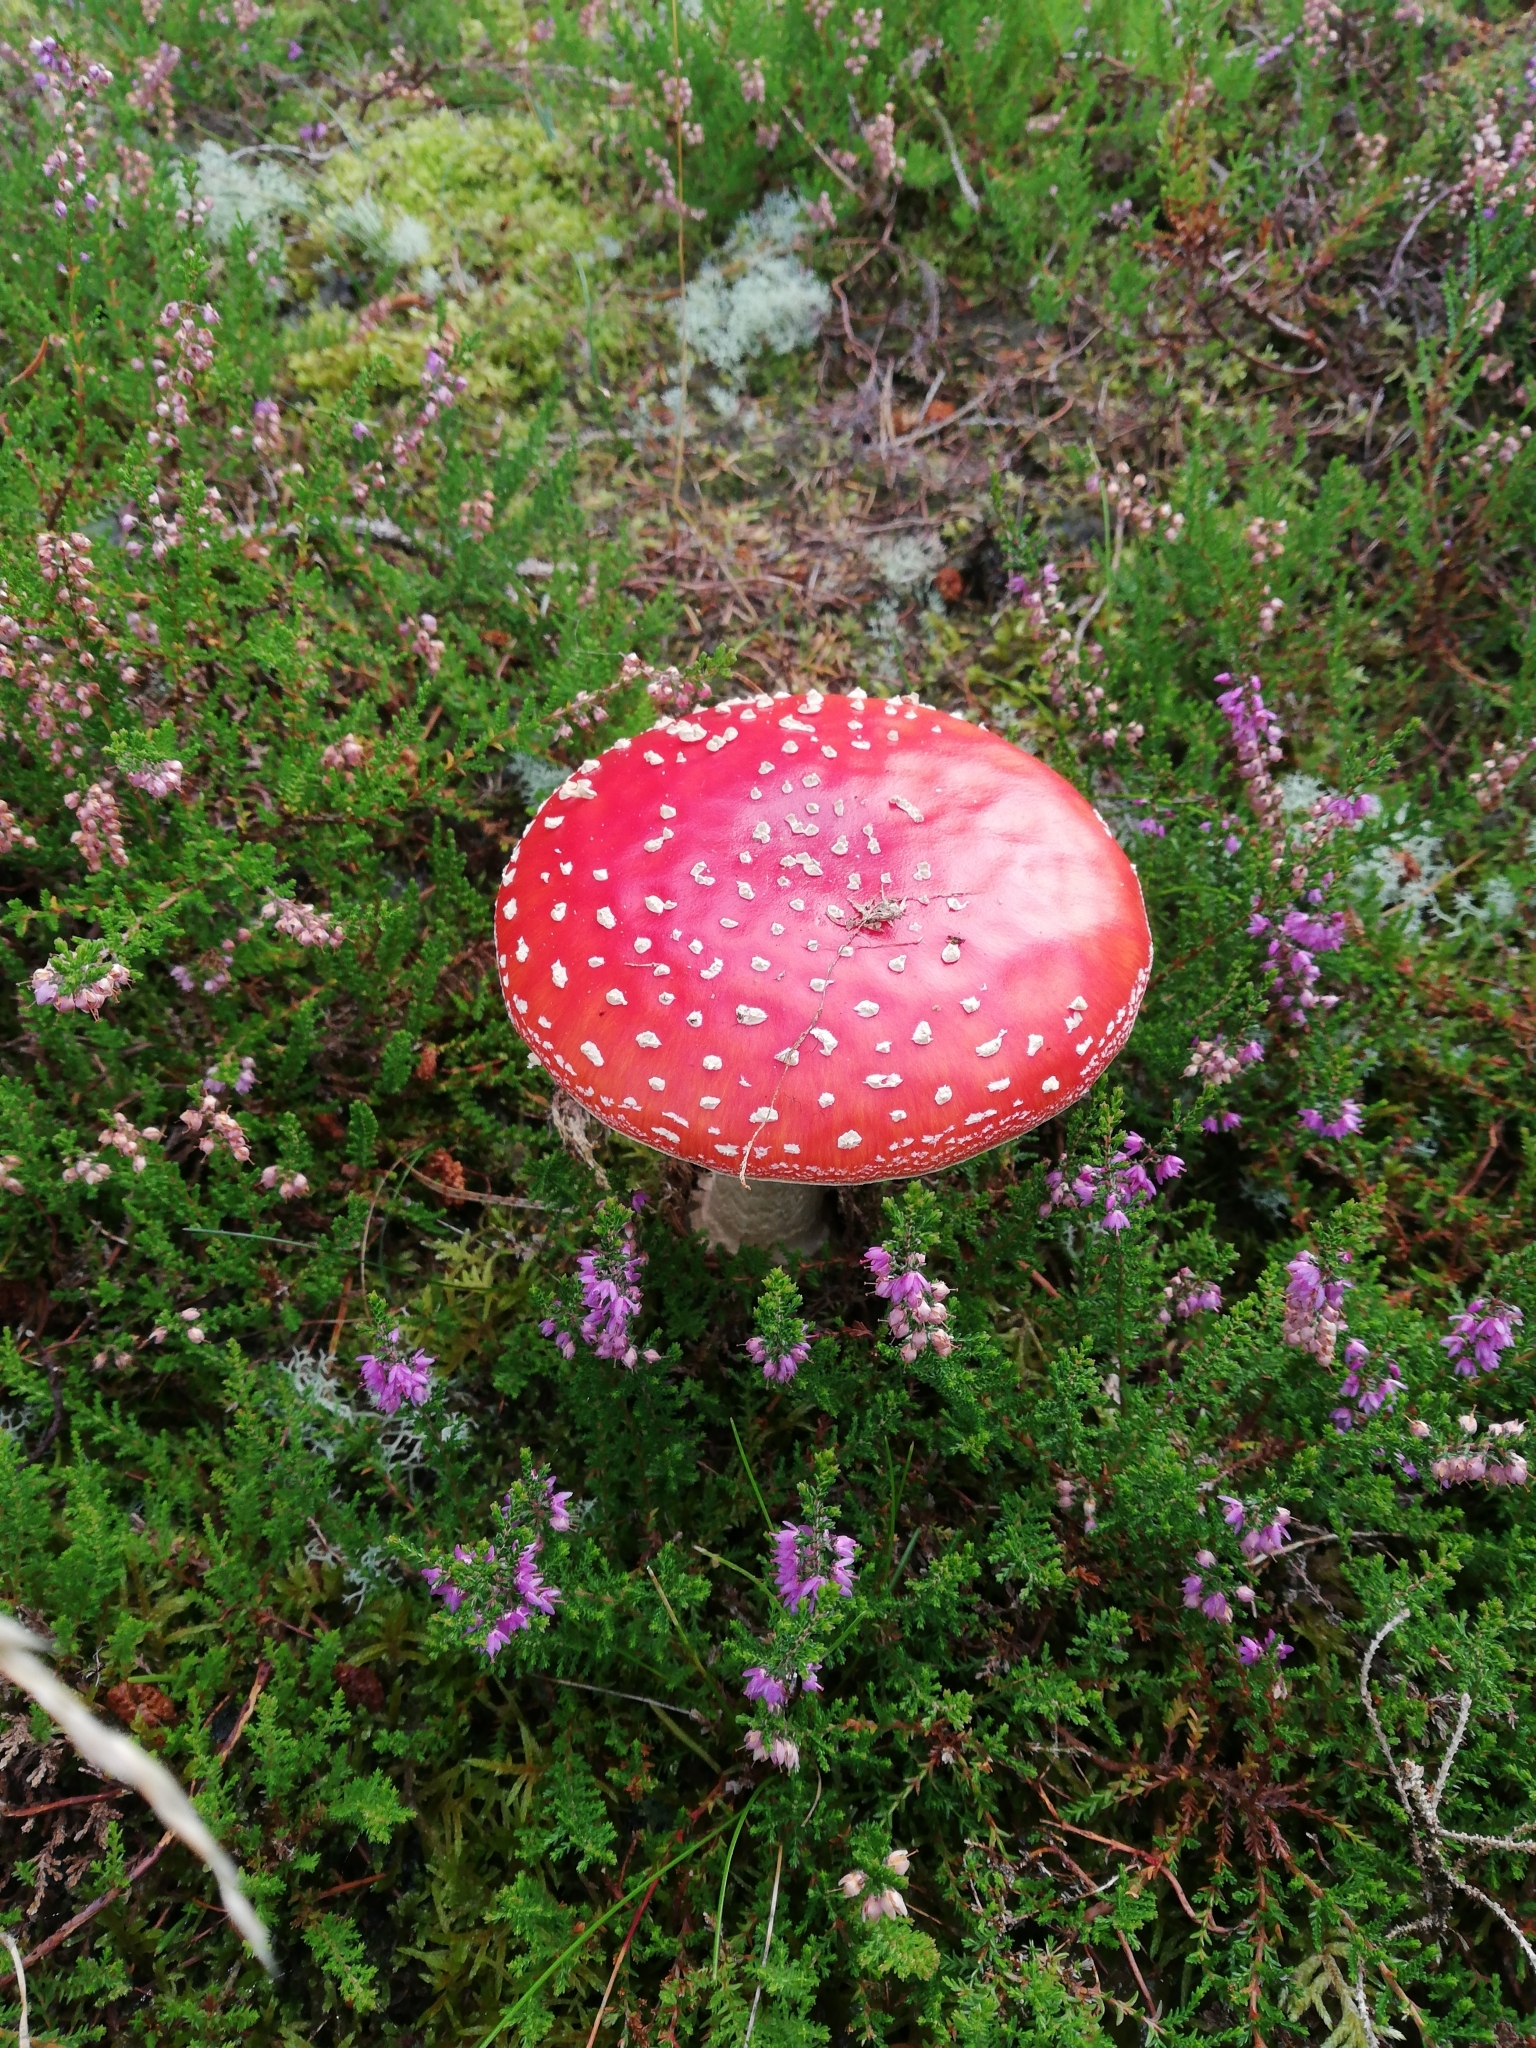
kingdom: Fungi
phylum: Basidiomycota
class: Agaricomycetes
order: Agaricales
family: Amanitaceae
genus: Amanita
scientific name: Amanita muscaria
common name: Fly agaric
